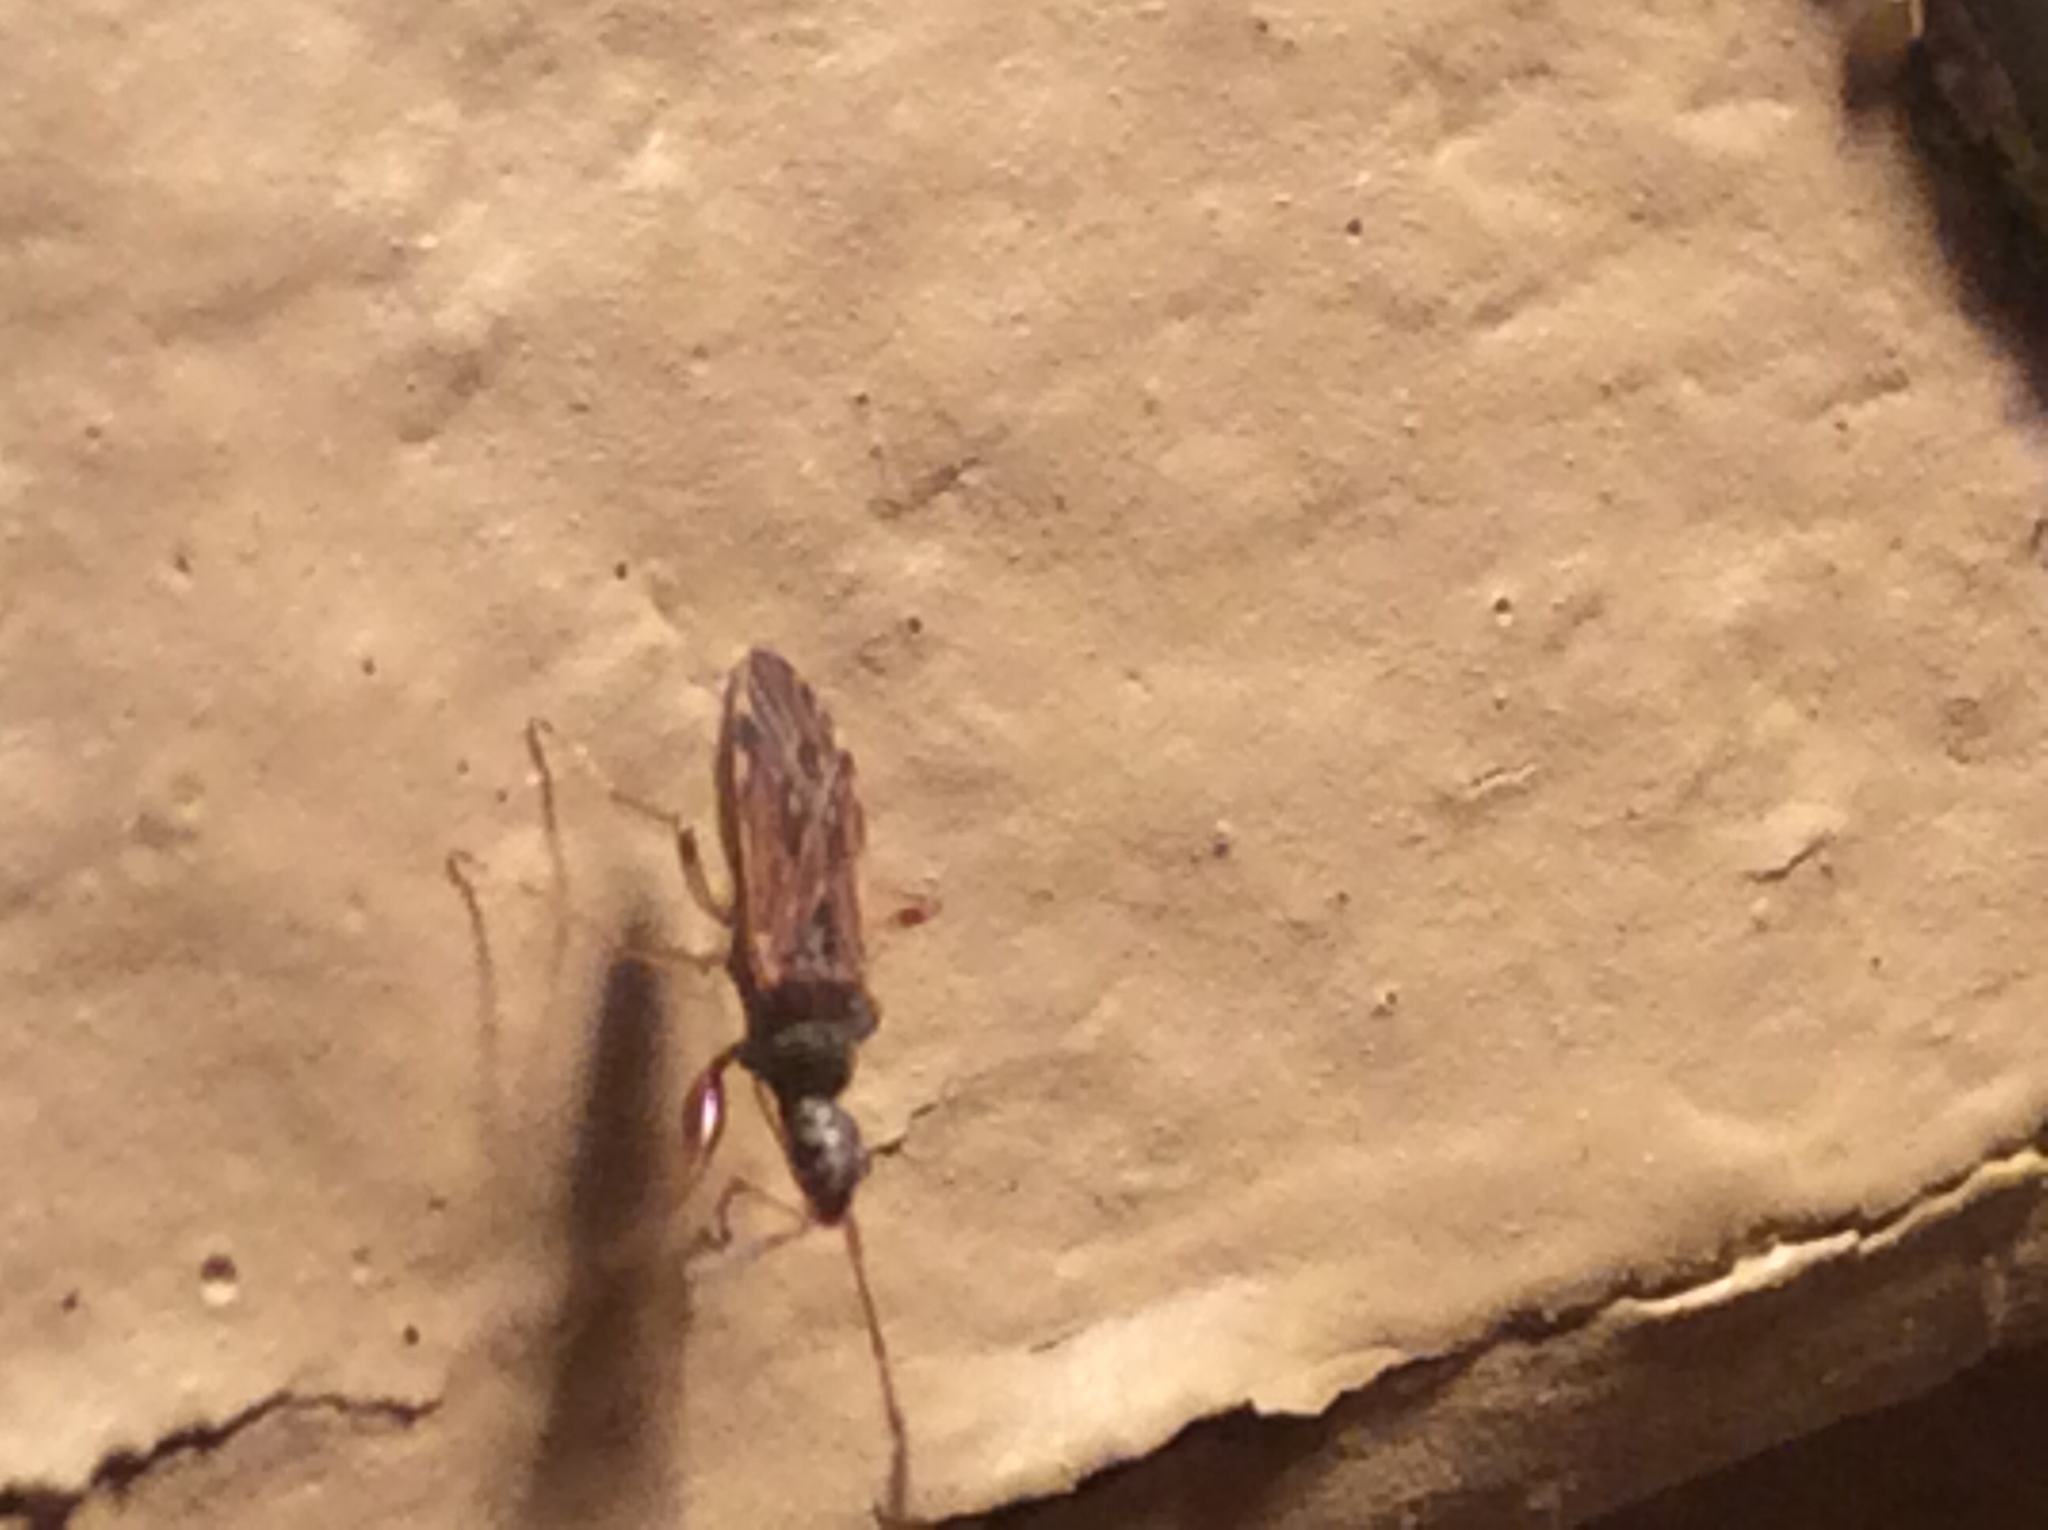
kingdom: Animalia
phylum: Arthropoda
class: Insecta
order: Hemiptera
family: Rhyparochromidae
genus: Heraeus
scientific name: Heraeus plebejus
